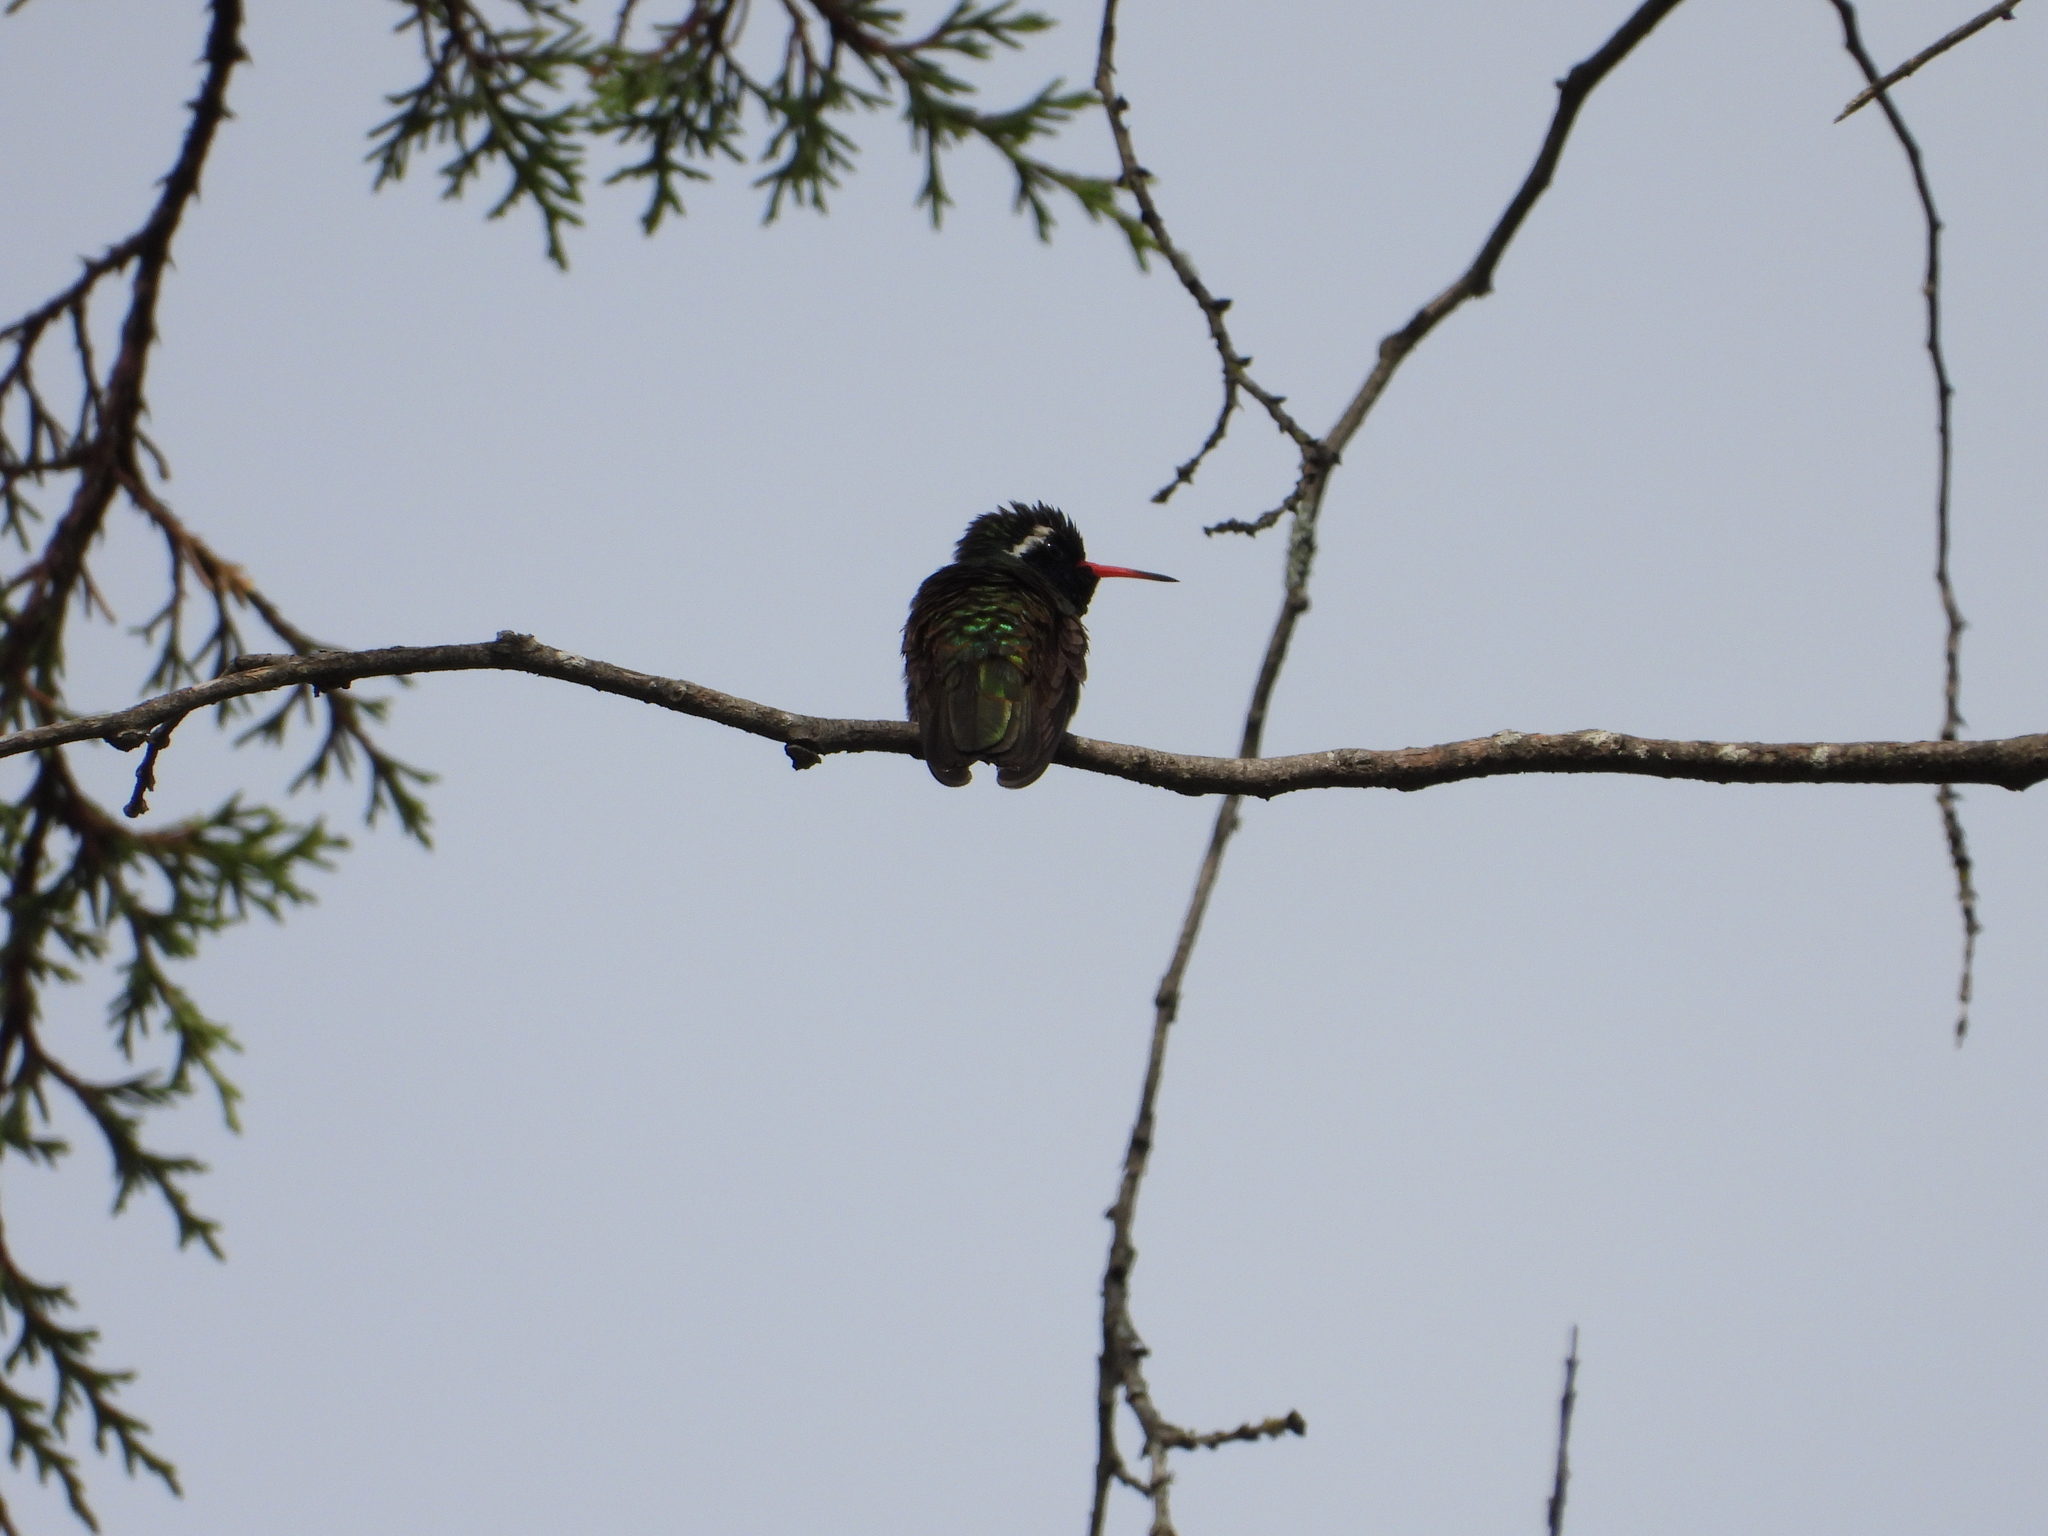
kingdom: Animalia
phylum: Chordata
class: Aves
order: Apodiformes
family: Trochilidae
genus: Basilinna
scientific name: Basilinna leucotis
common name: White-eared hummingbird
